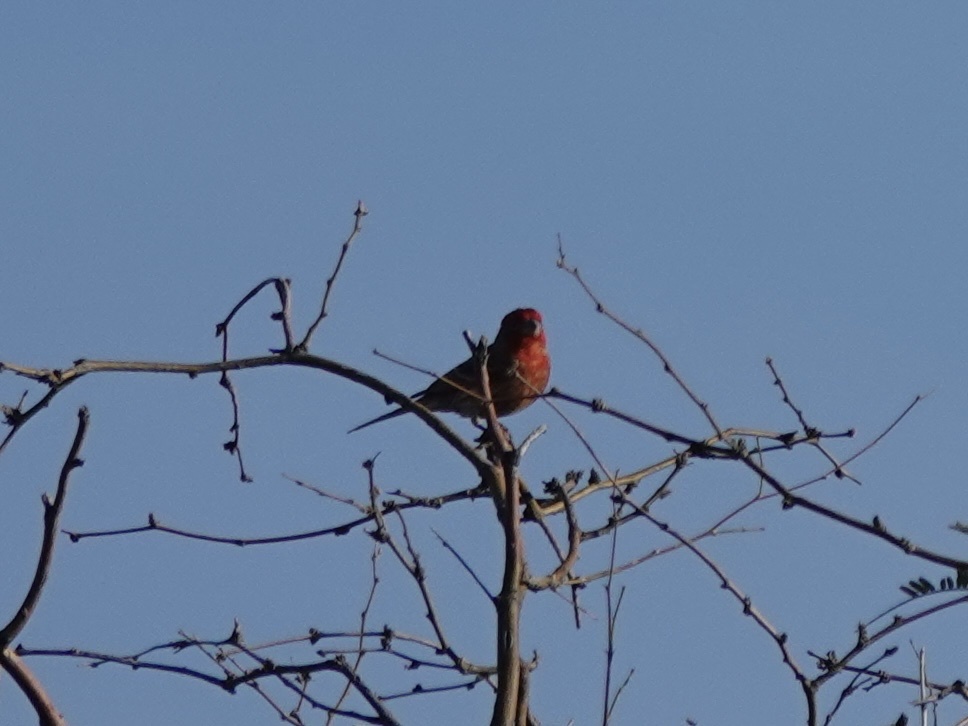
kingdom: Animalia
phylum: Chordata
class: Aves
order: Passeriformes
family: Fringillidae
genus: Haemorhous
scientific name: Haemorhous mexicanus
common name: House finch
